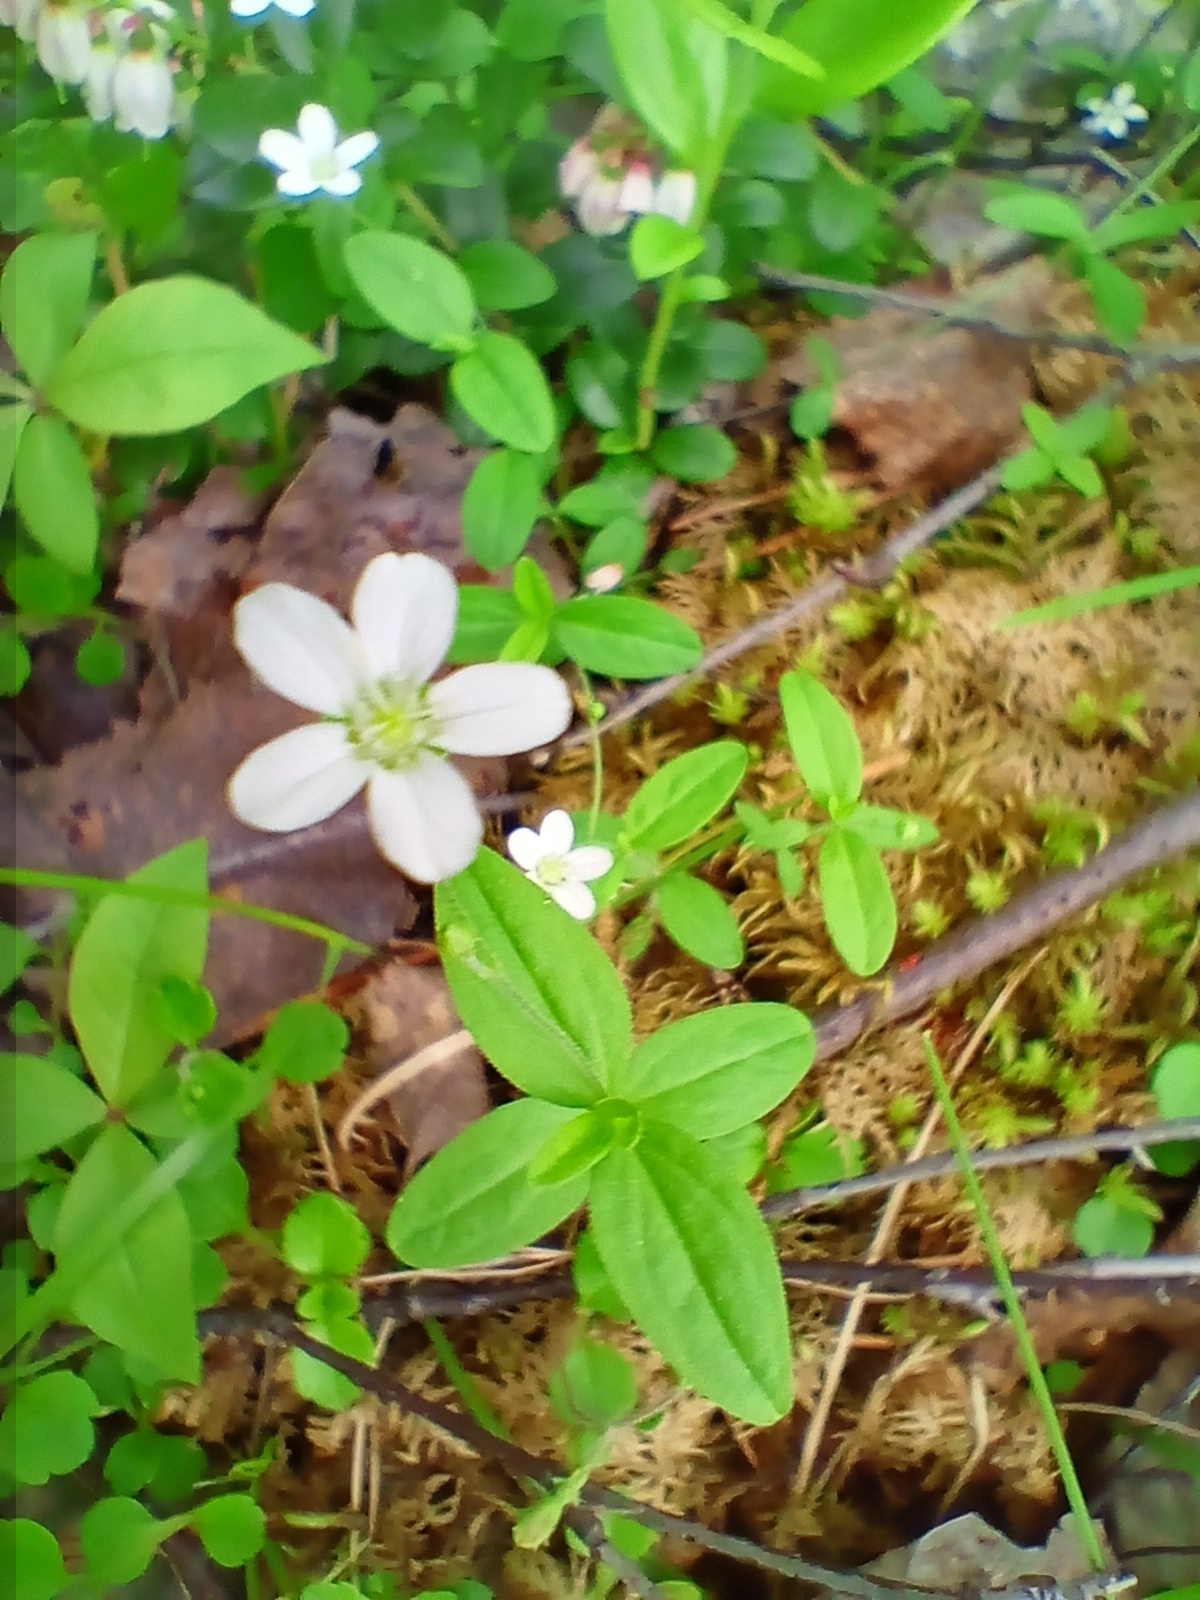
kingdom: Plantae
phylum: Tracheophyta
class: Magnoliopsida
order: Caryophyllales
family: Caryophyllaceae
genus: Moehringia
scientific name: Moehringia lateriflora
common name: Blunt-leaved sandwort
